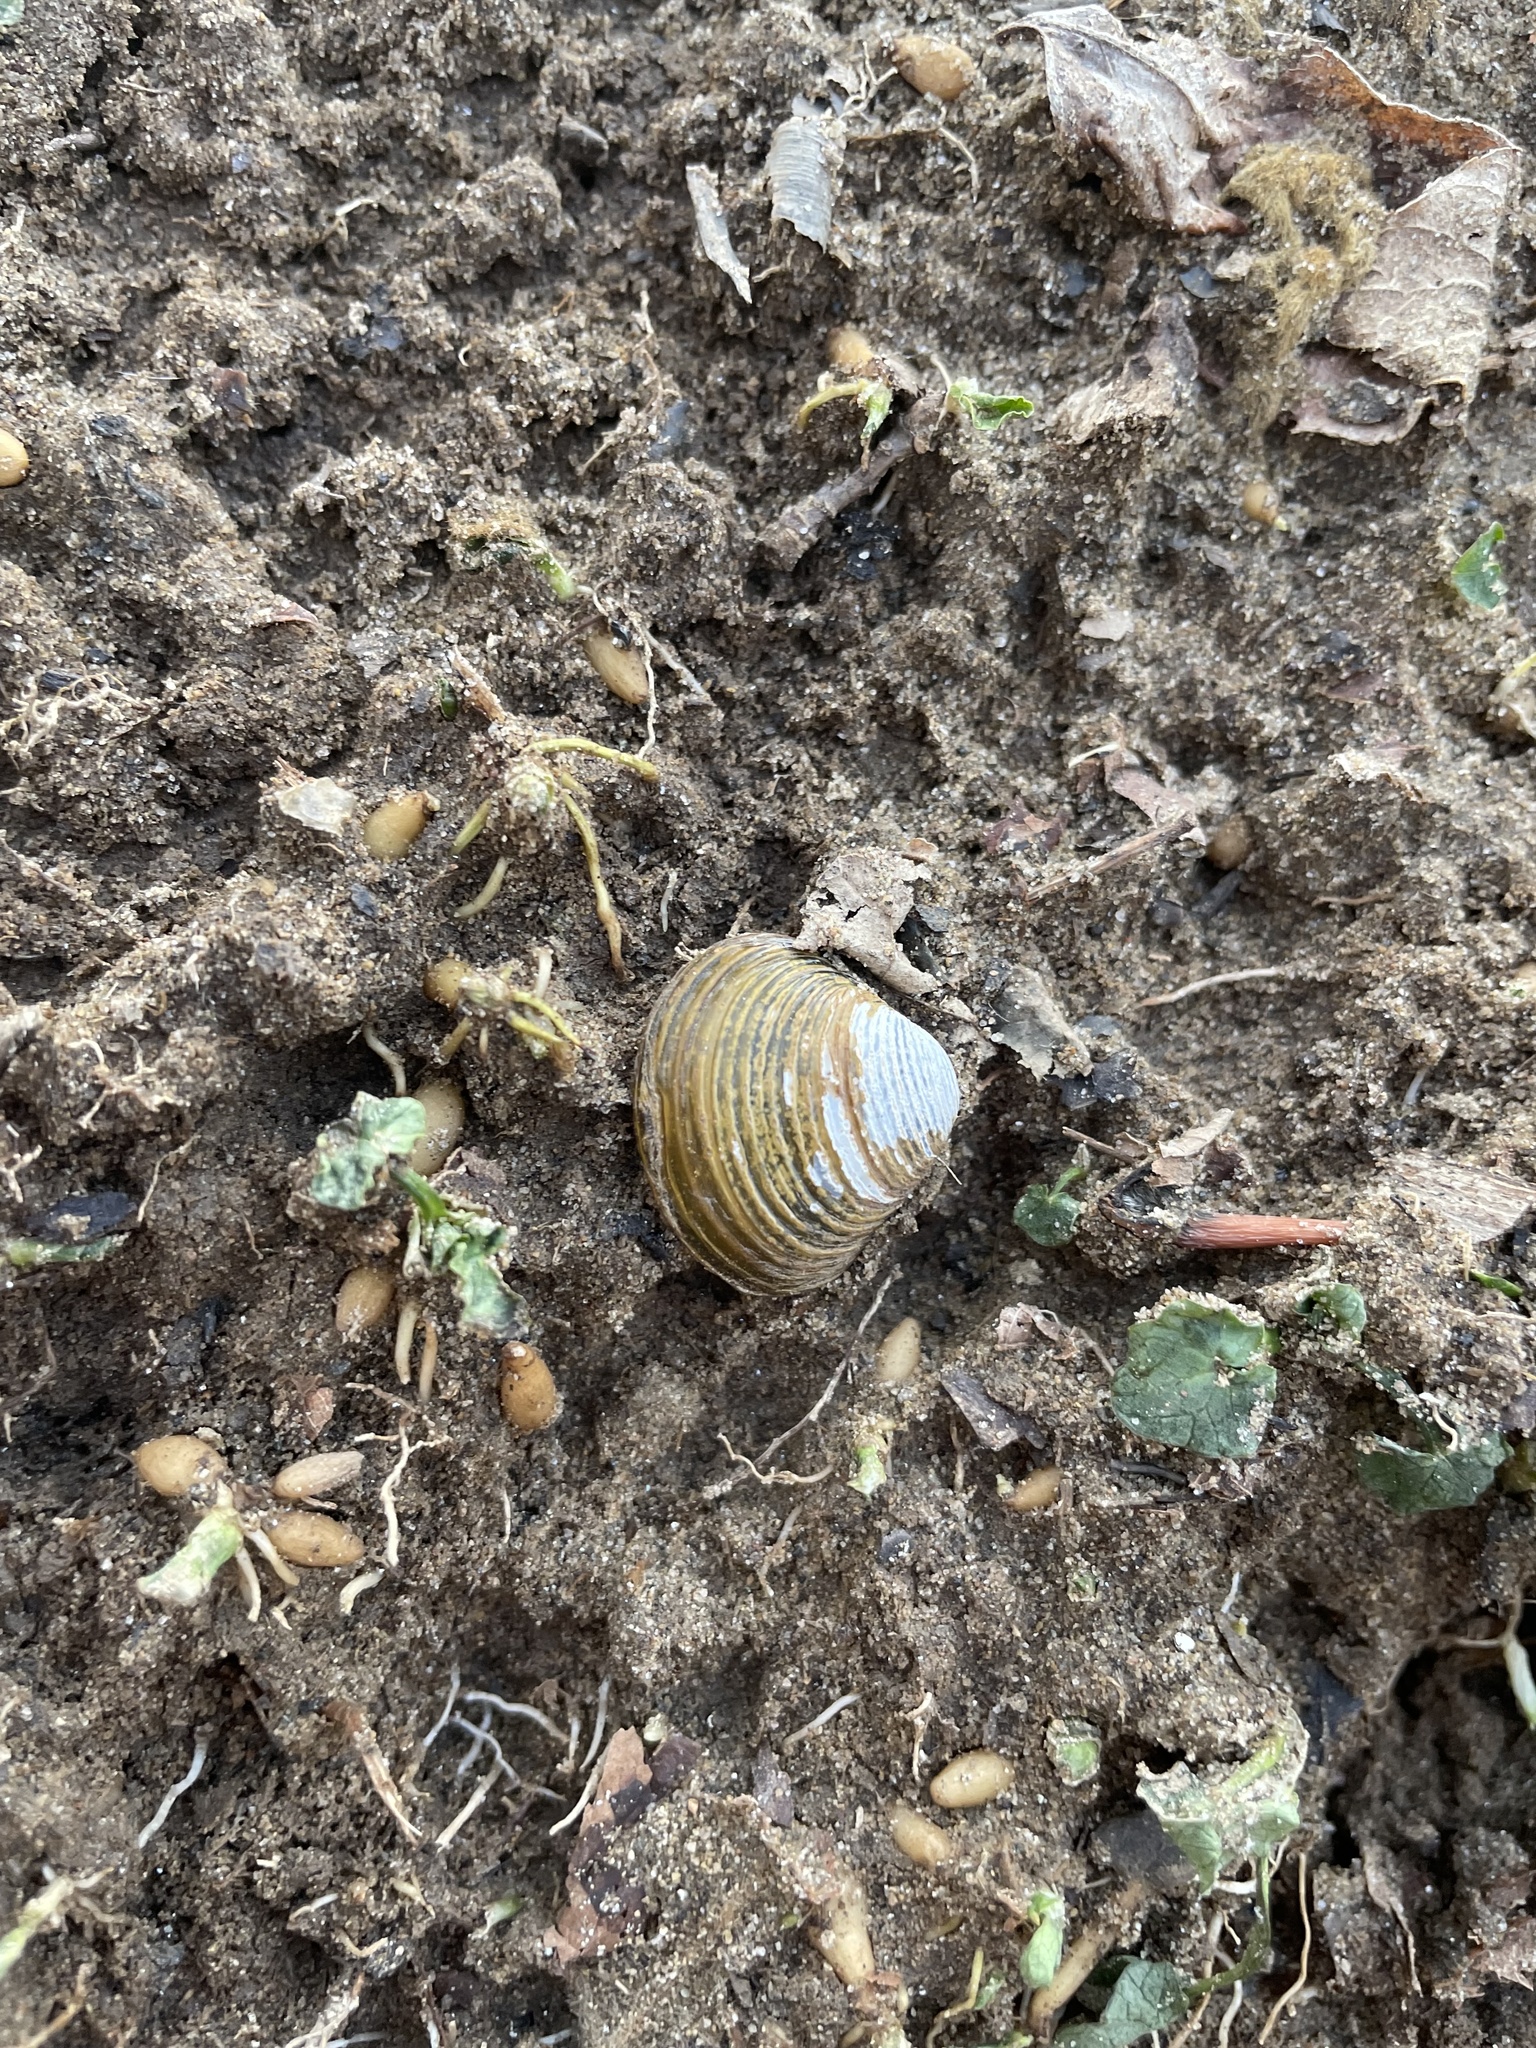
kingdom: Animalia
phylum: Mollusca
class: Bivalvia
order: Venerida
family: Cyrenidae
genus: Corbicula
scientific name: Corbicula fluminea
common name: Asian clam
